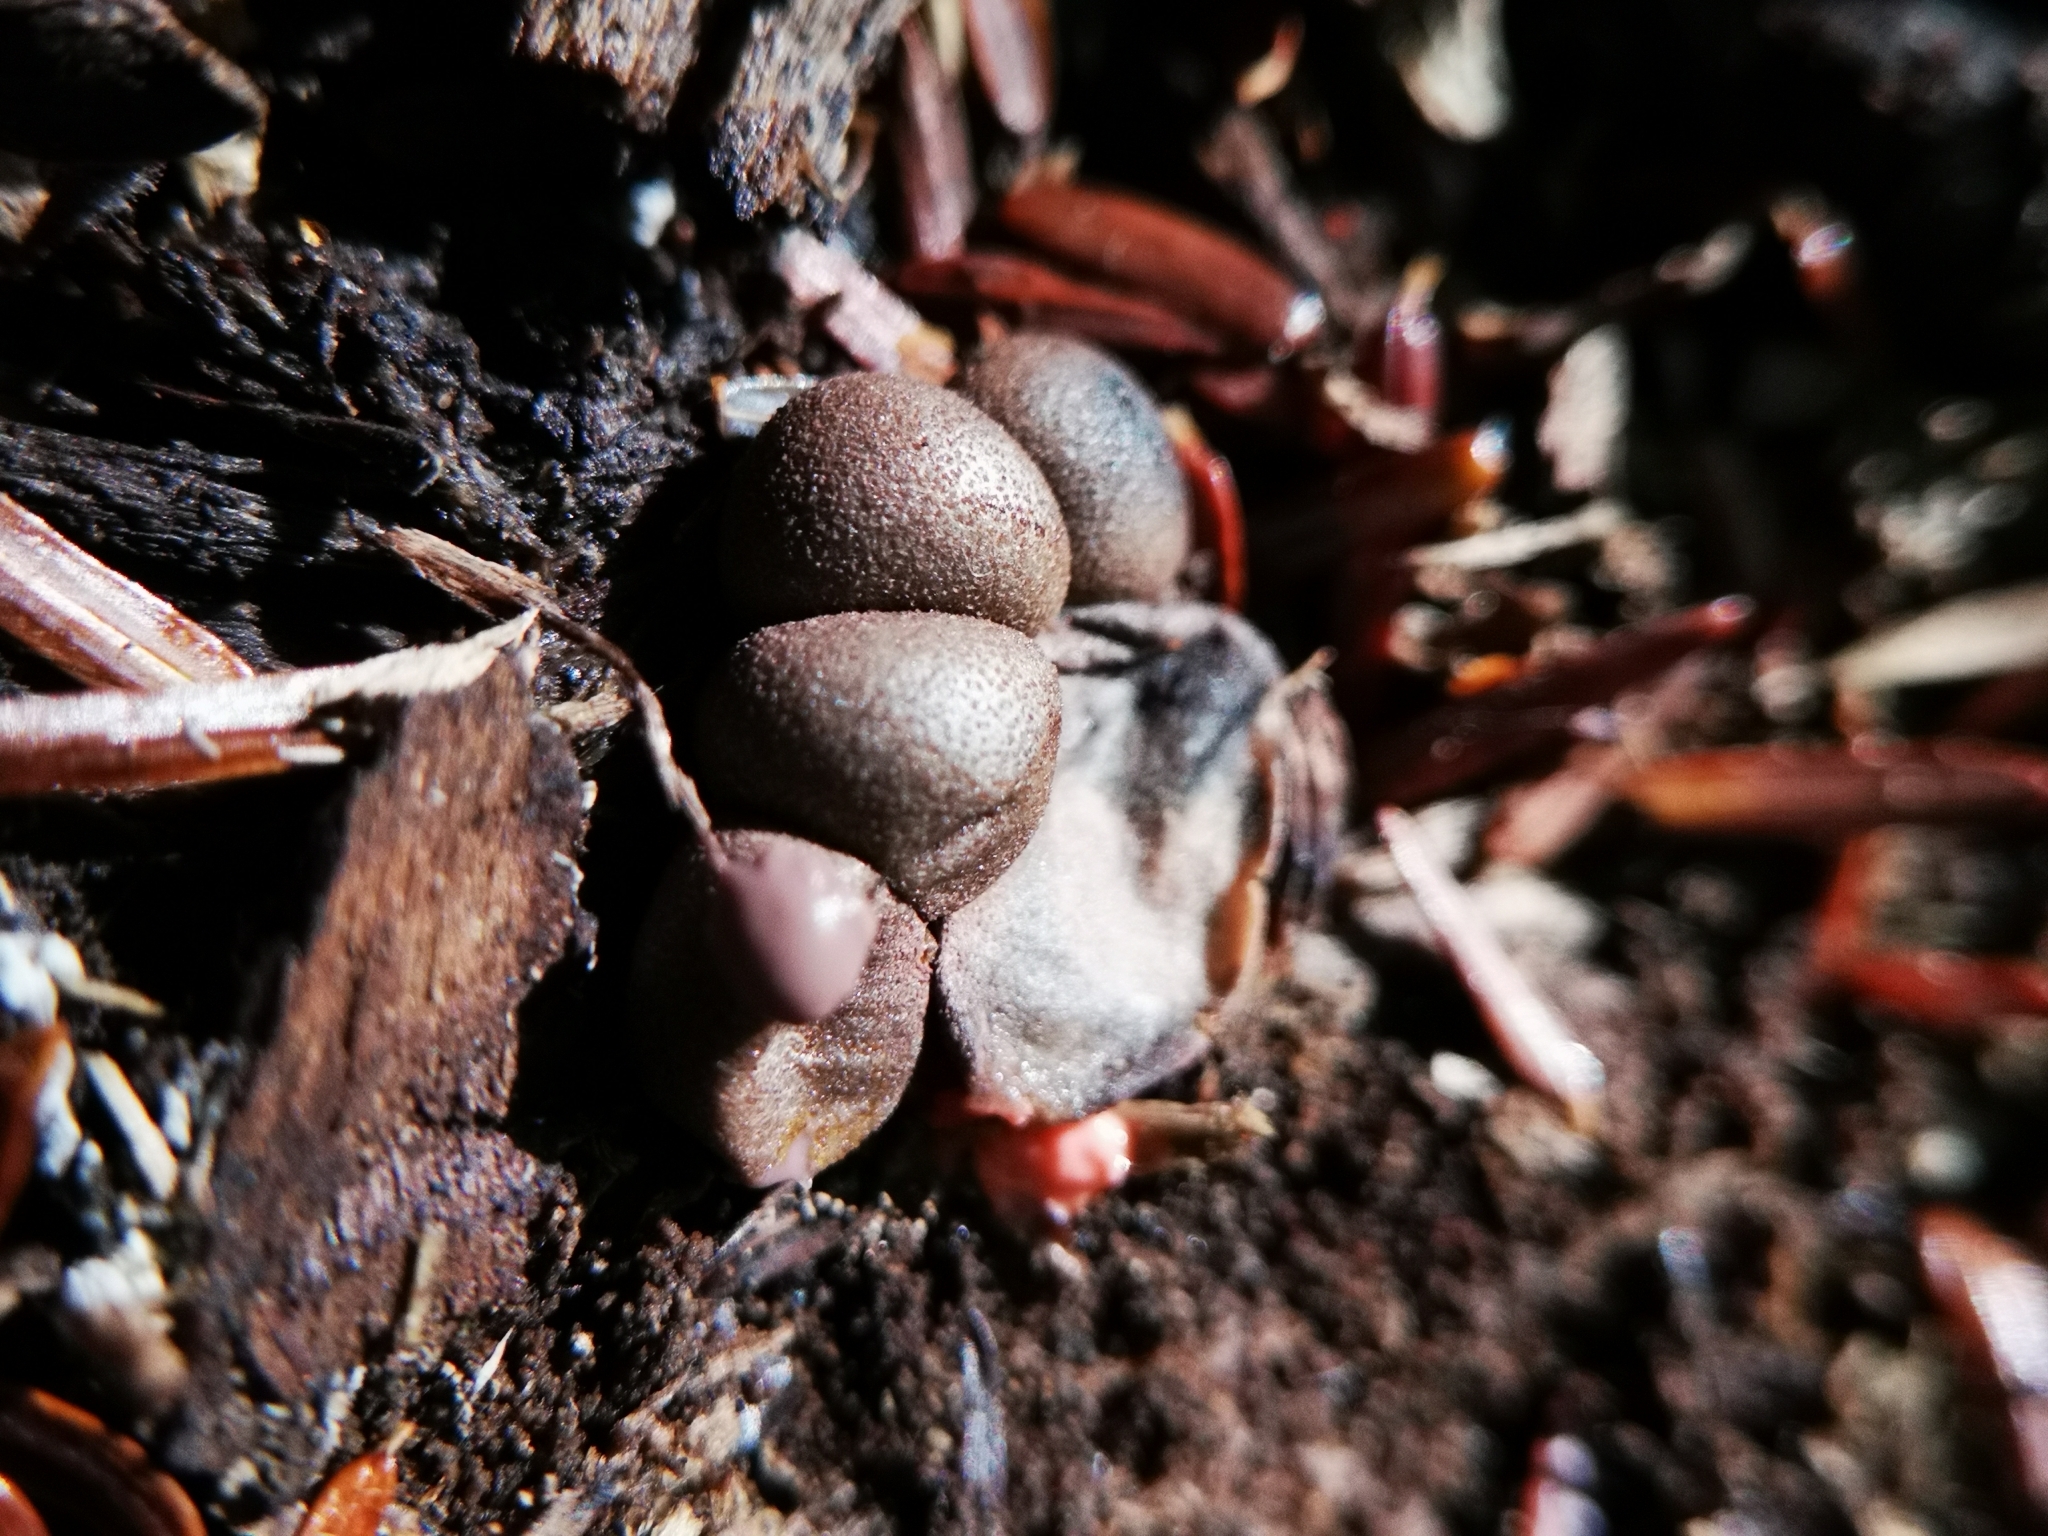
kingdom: Protozoa
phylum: Mycetozoa
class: Myxomycetes
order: Cribrariales
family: Tubiferaceae
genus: Lycogala
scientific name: Lycogala epidendrum
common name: Wolf's milk
